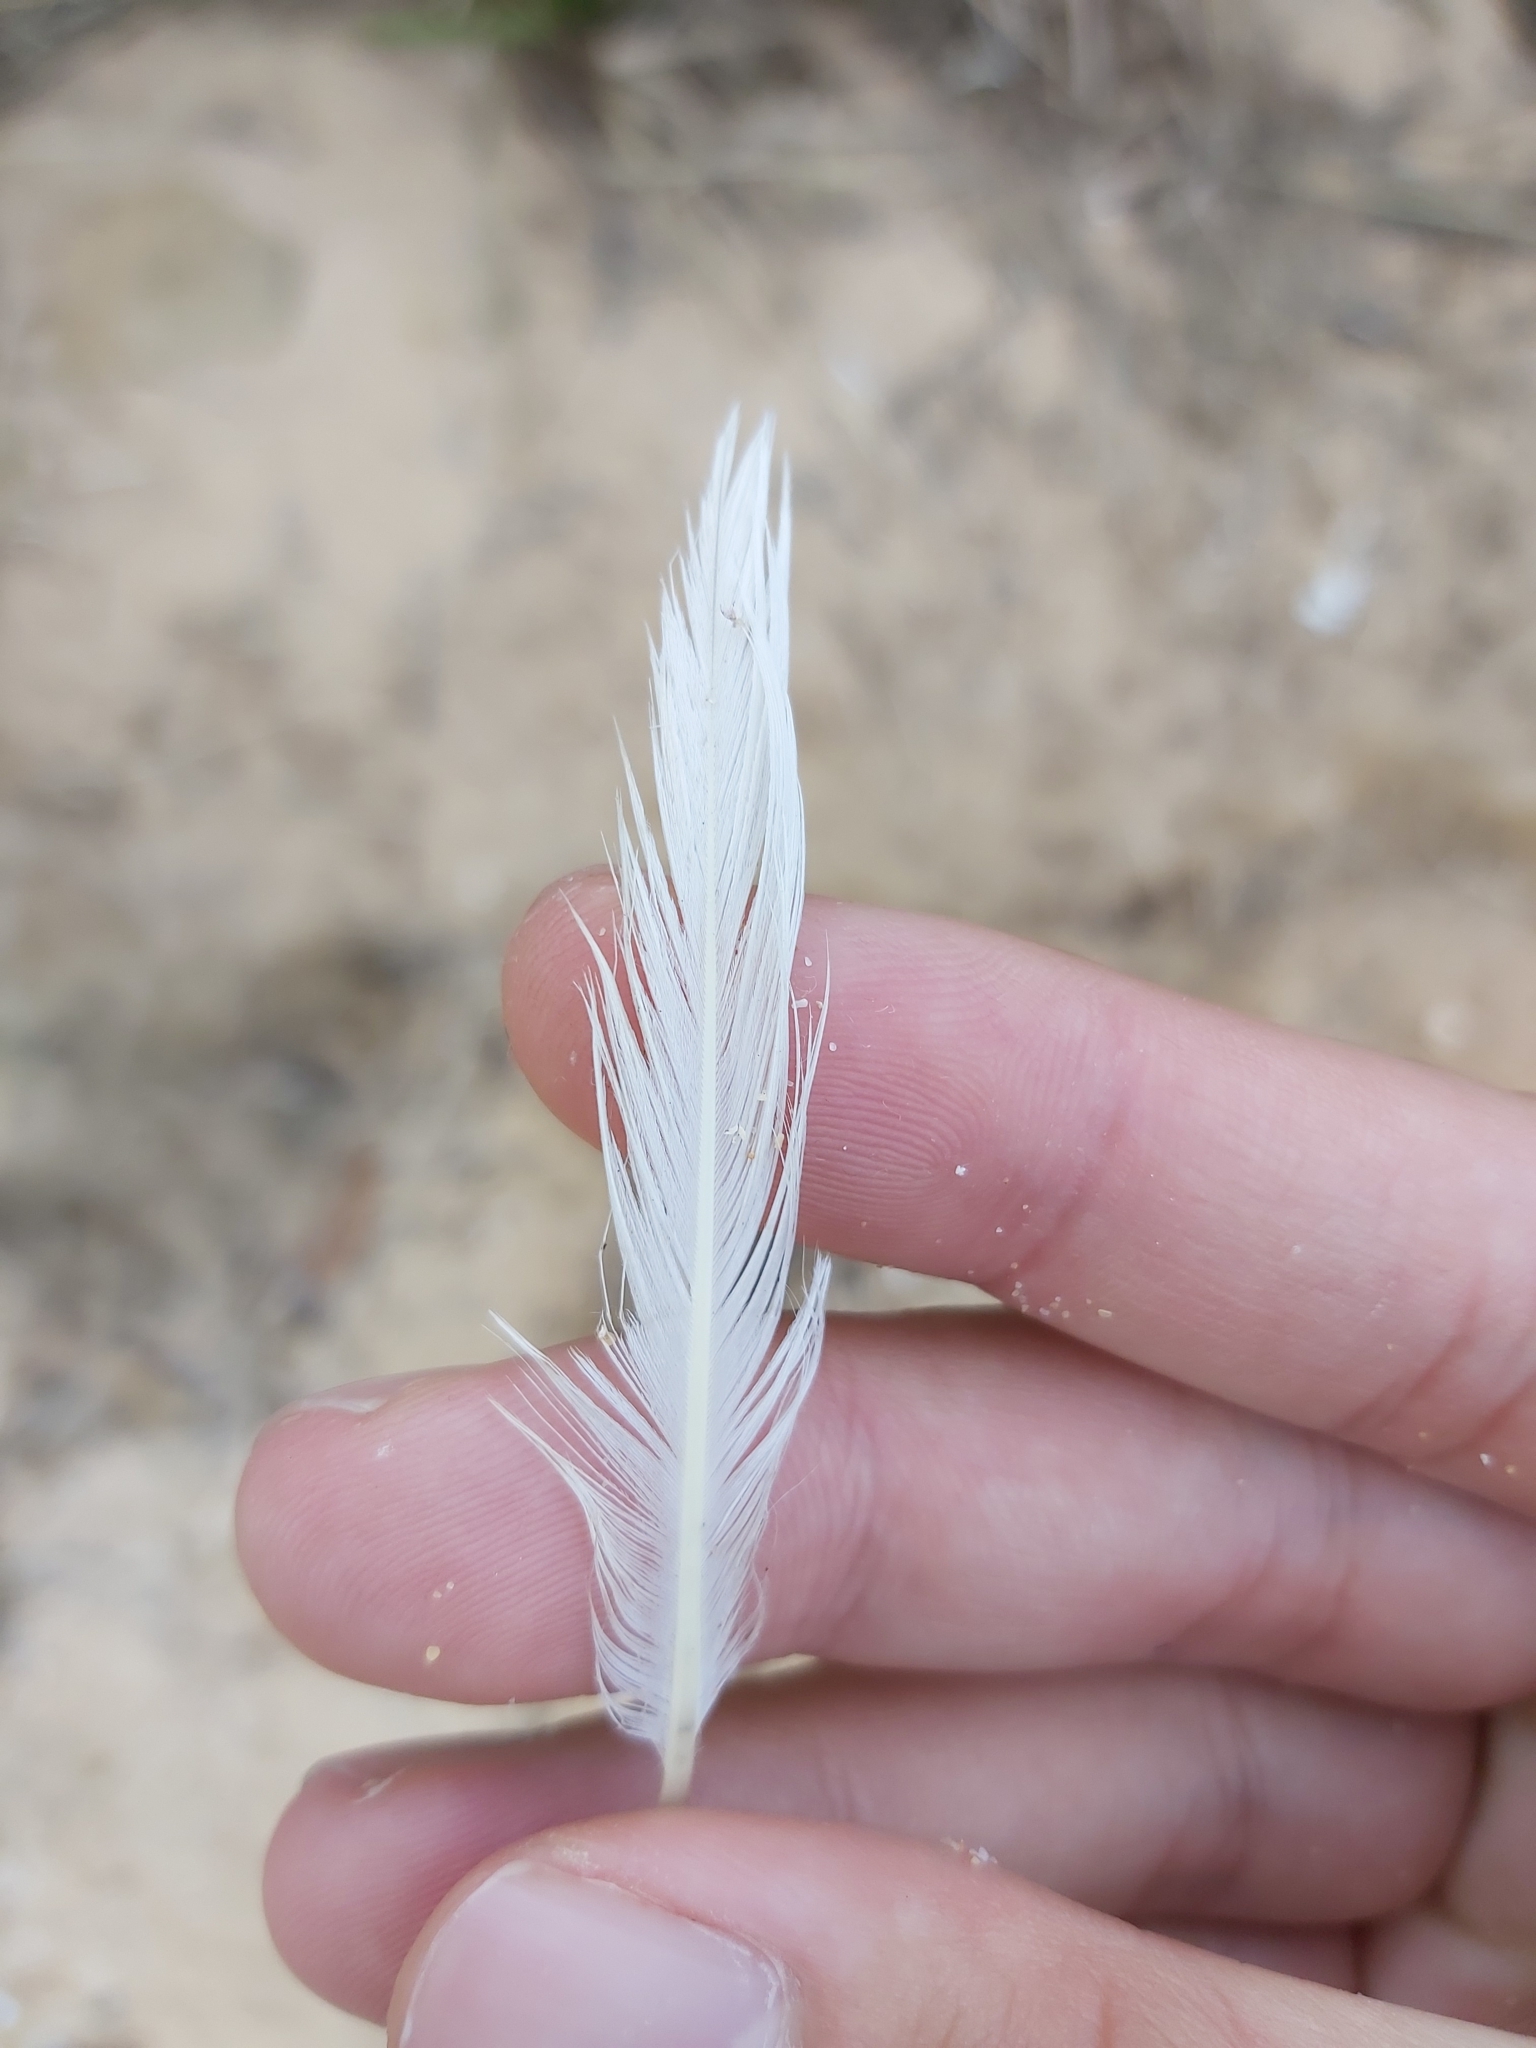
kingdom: Animalia
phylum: Chordata
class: Aves
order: Charadriiformes
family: Laridae
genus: Chroicocephalus
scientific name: Chroicocephalus novaehollandiae
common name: Silver gull
